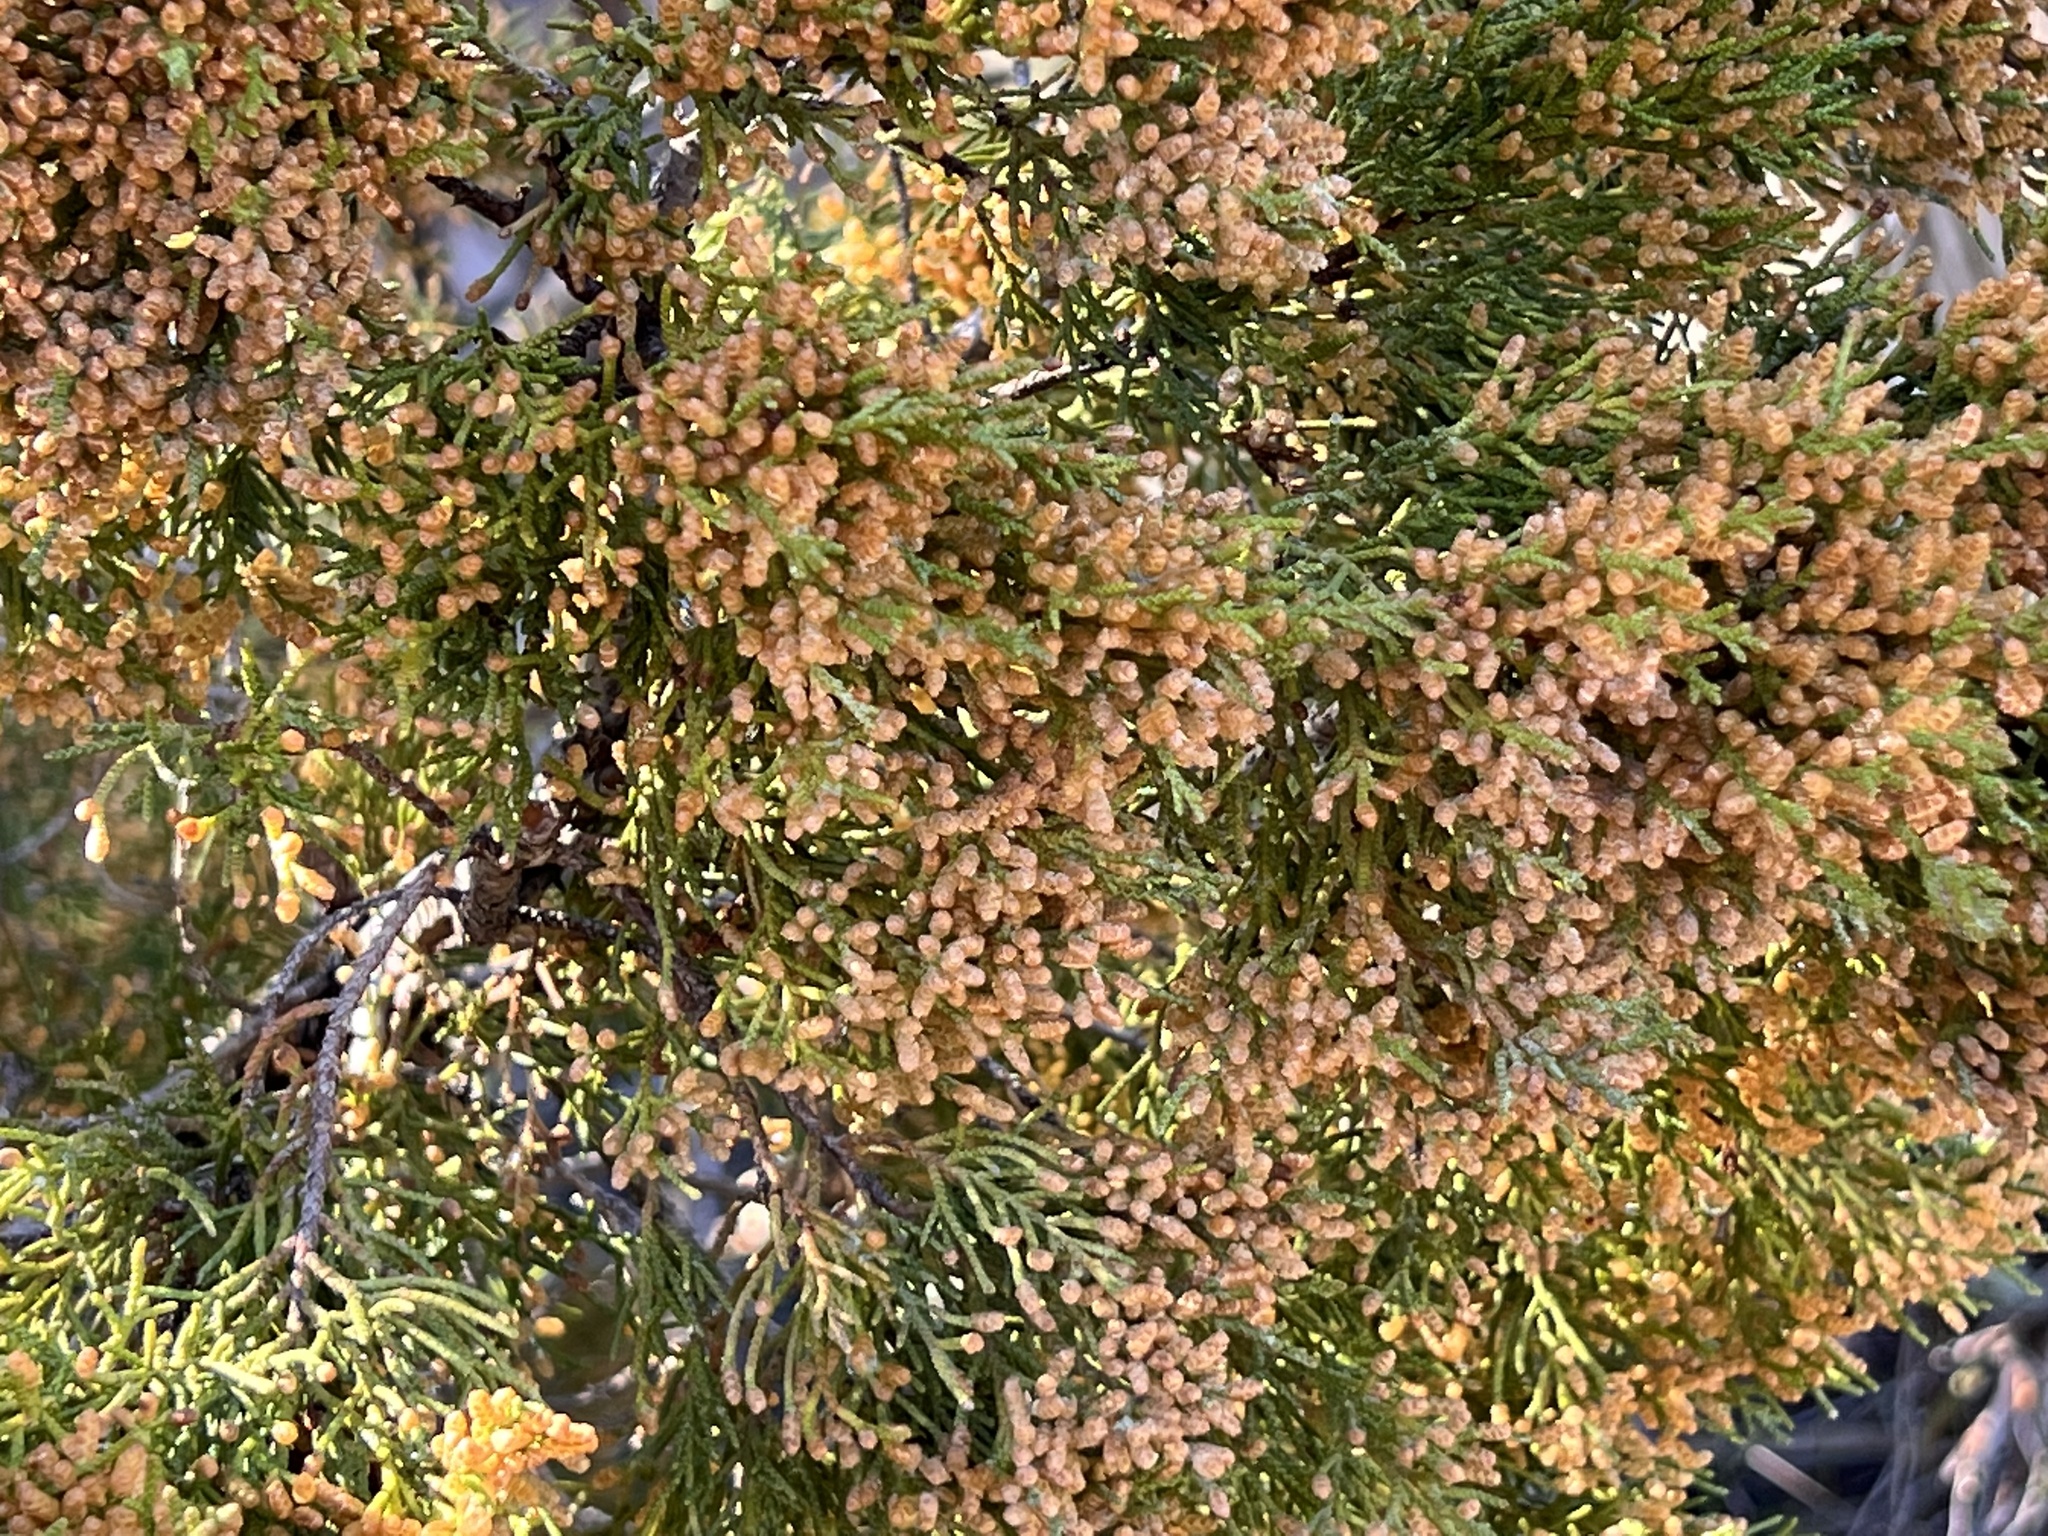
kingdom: Plantae
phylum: Tracheophyta
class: Pinopsida
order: Pinales
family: Cupressaceae
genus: Juniperus
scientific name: Juniperus virginiana
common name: Red juniper
